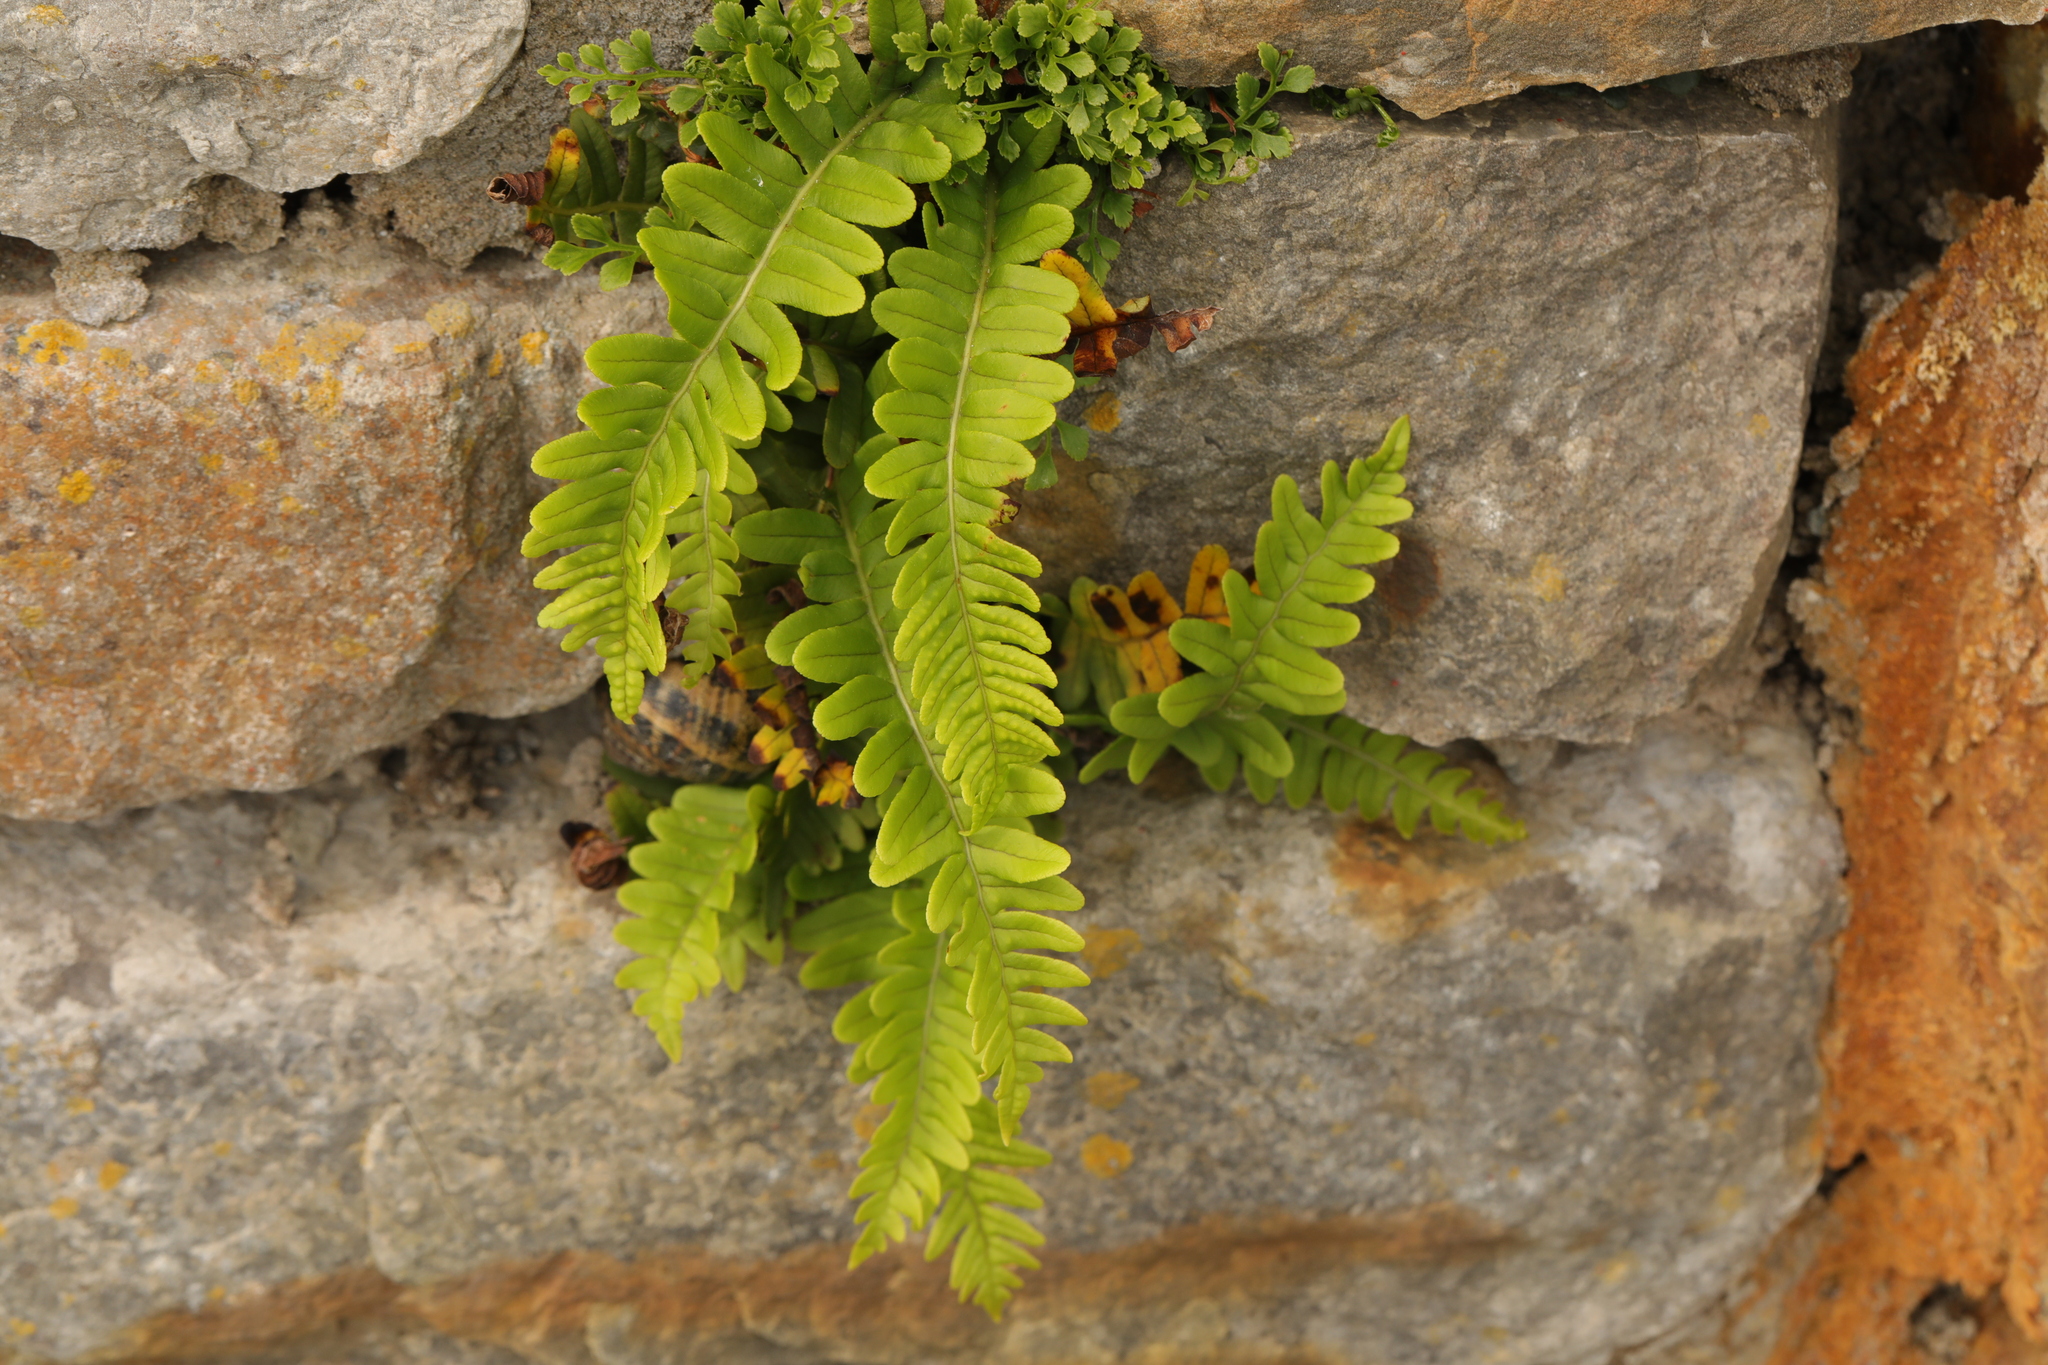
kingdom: Plantae
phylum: Tracheophyta
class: Polypodiopsida
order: Polypodiales
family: Polypodiaceae
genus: Polypodium
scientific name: Polypodium vulgare
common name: Common polypody
